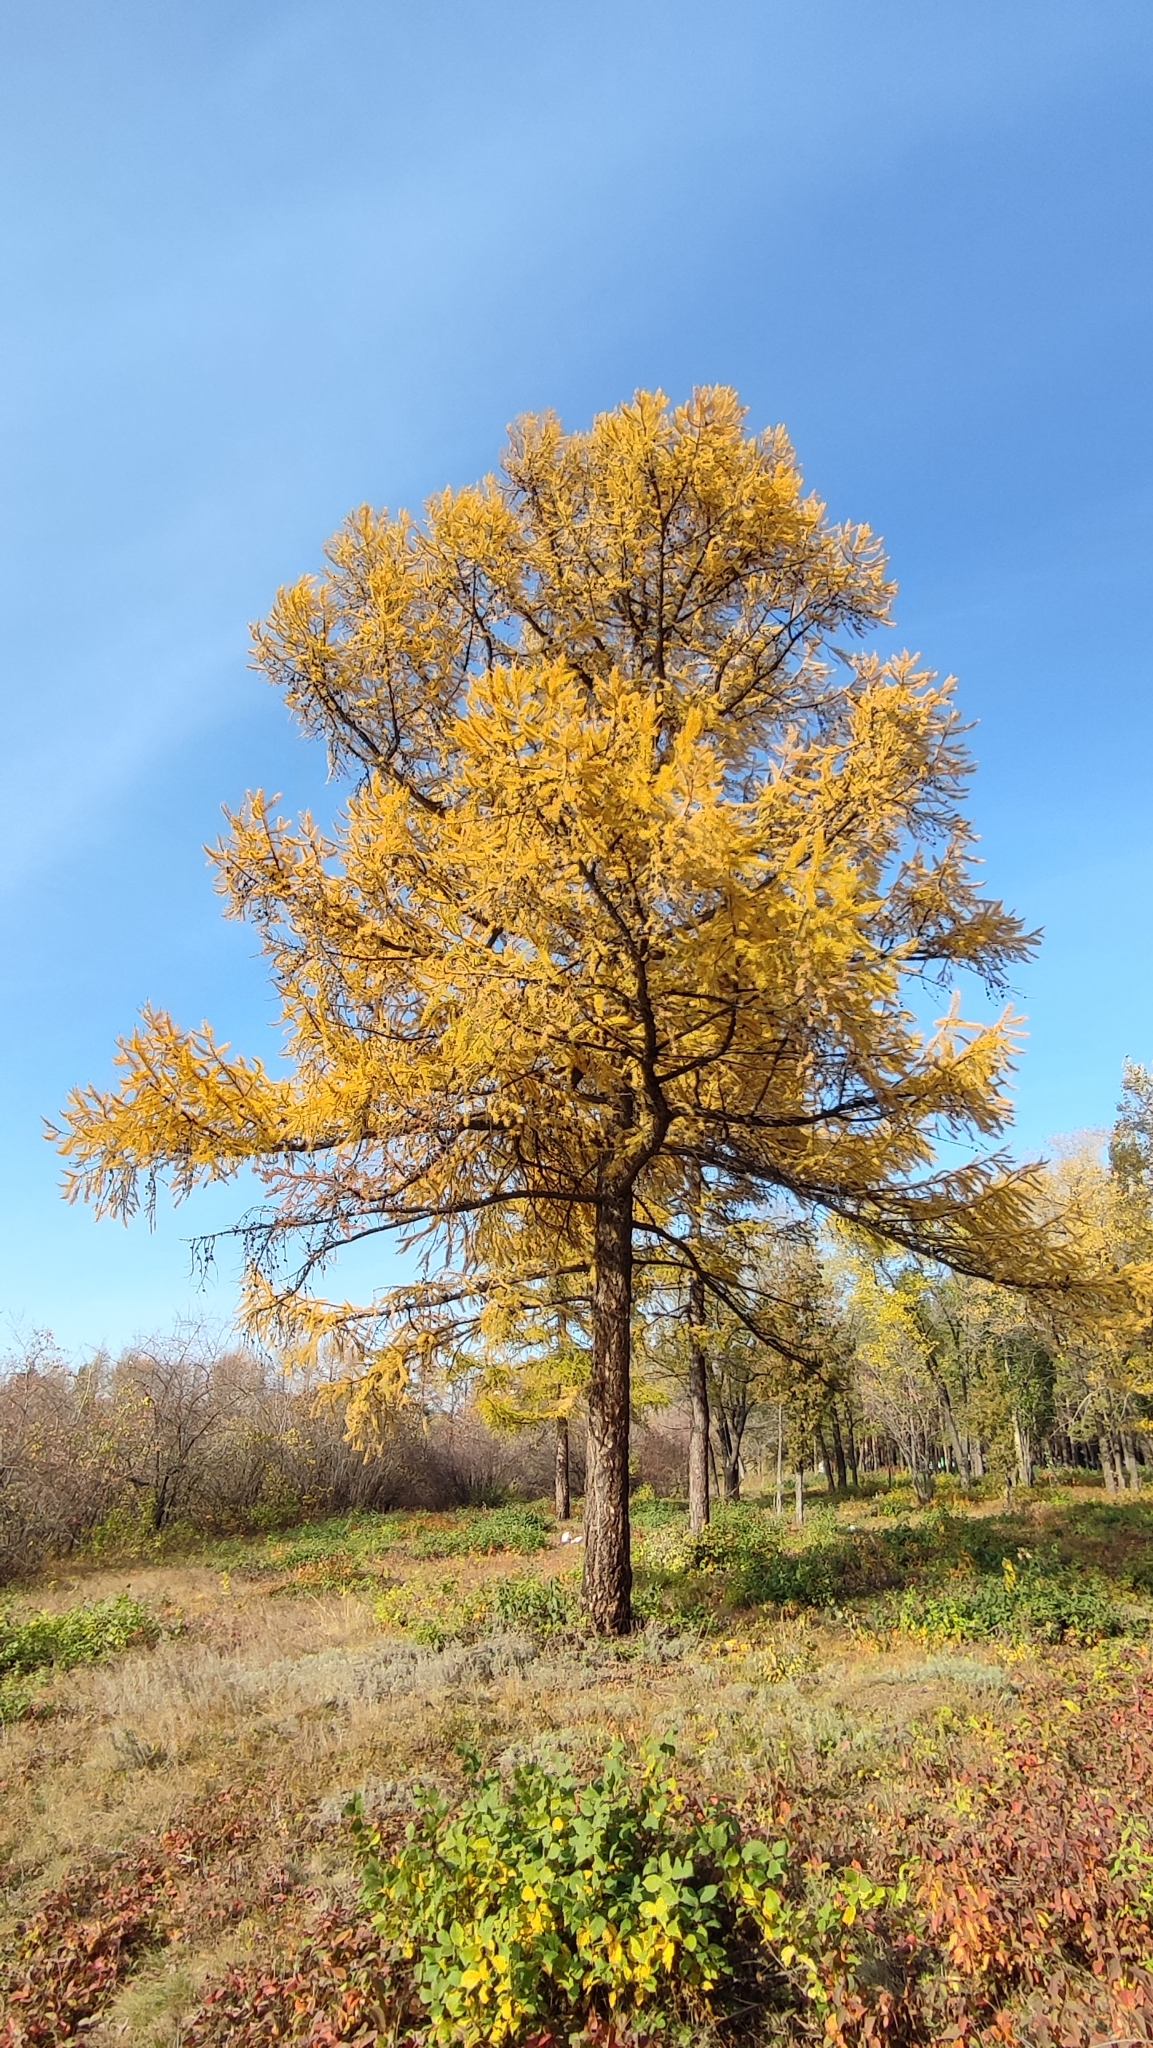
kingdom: Plantae
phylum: Tracheophyta
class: Pinopsida
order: Pinales
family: Pinaceae
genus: Larix
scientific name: Larix sibirica
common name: Siberian larch
